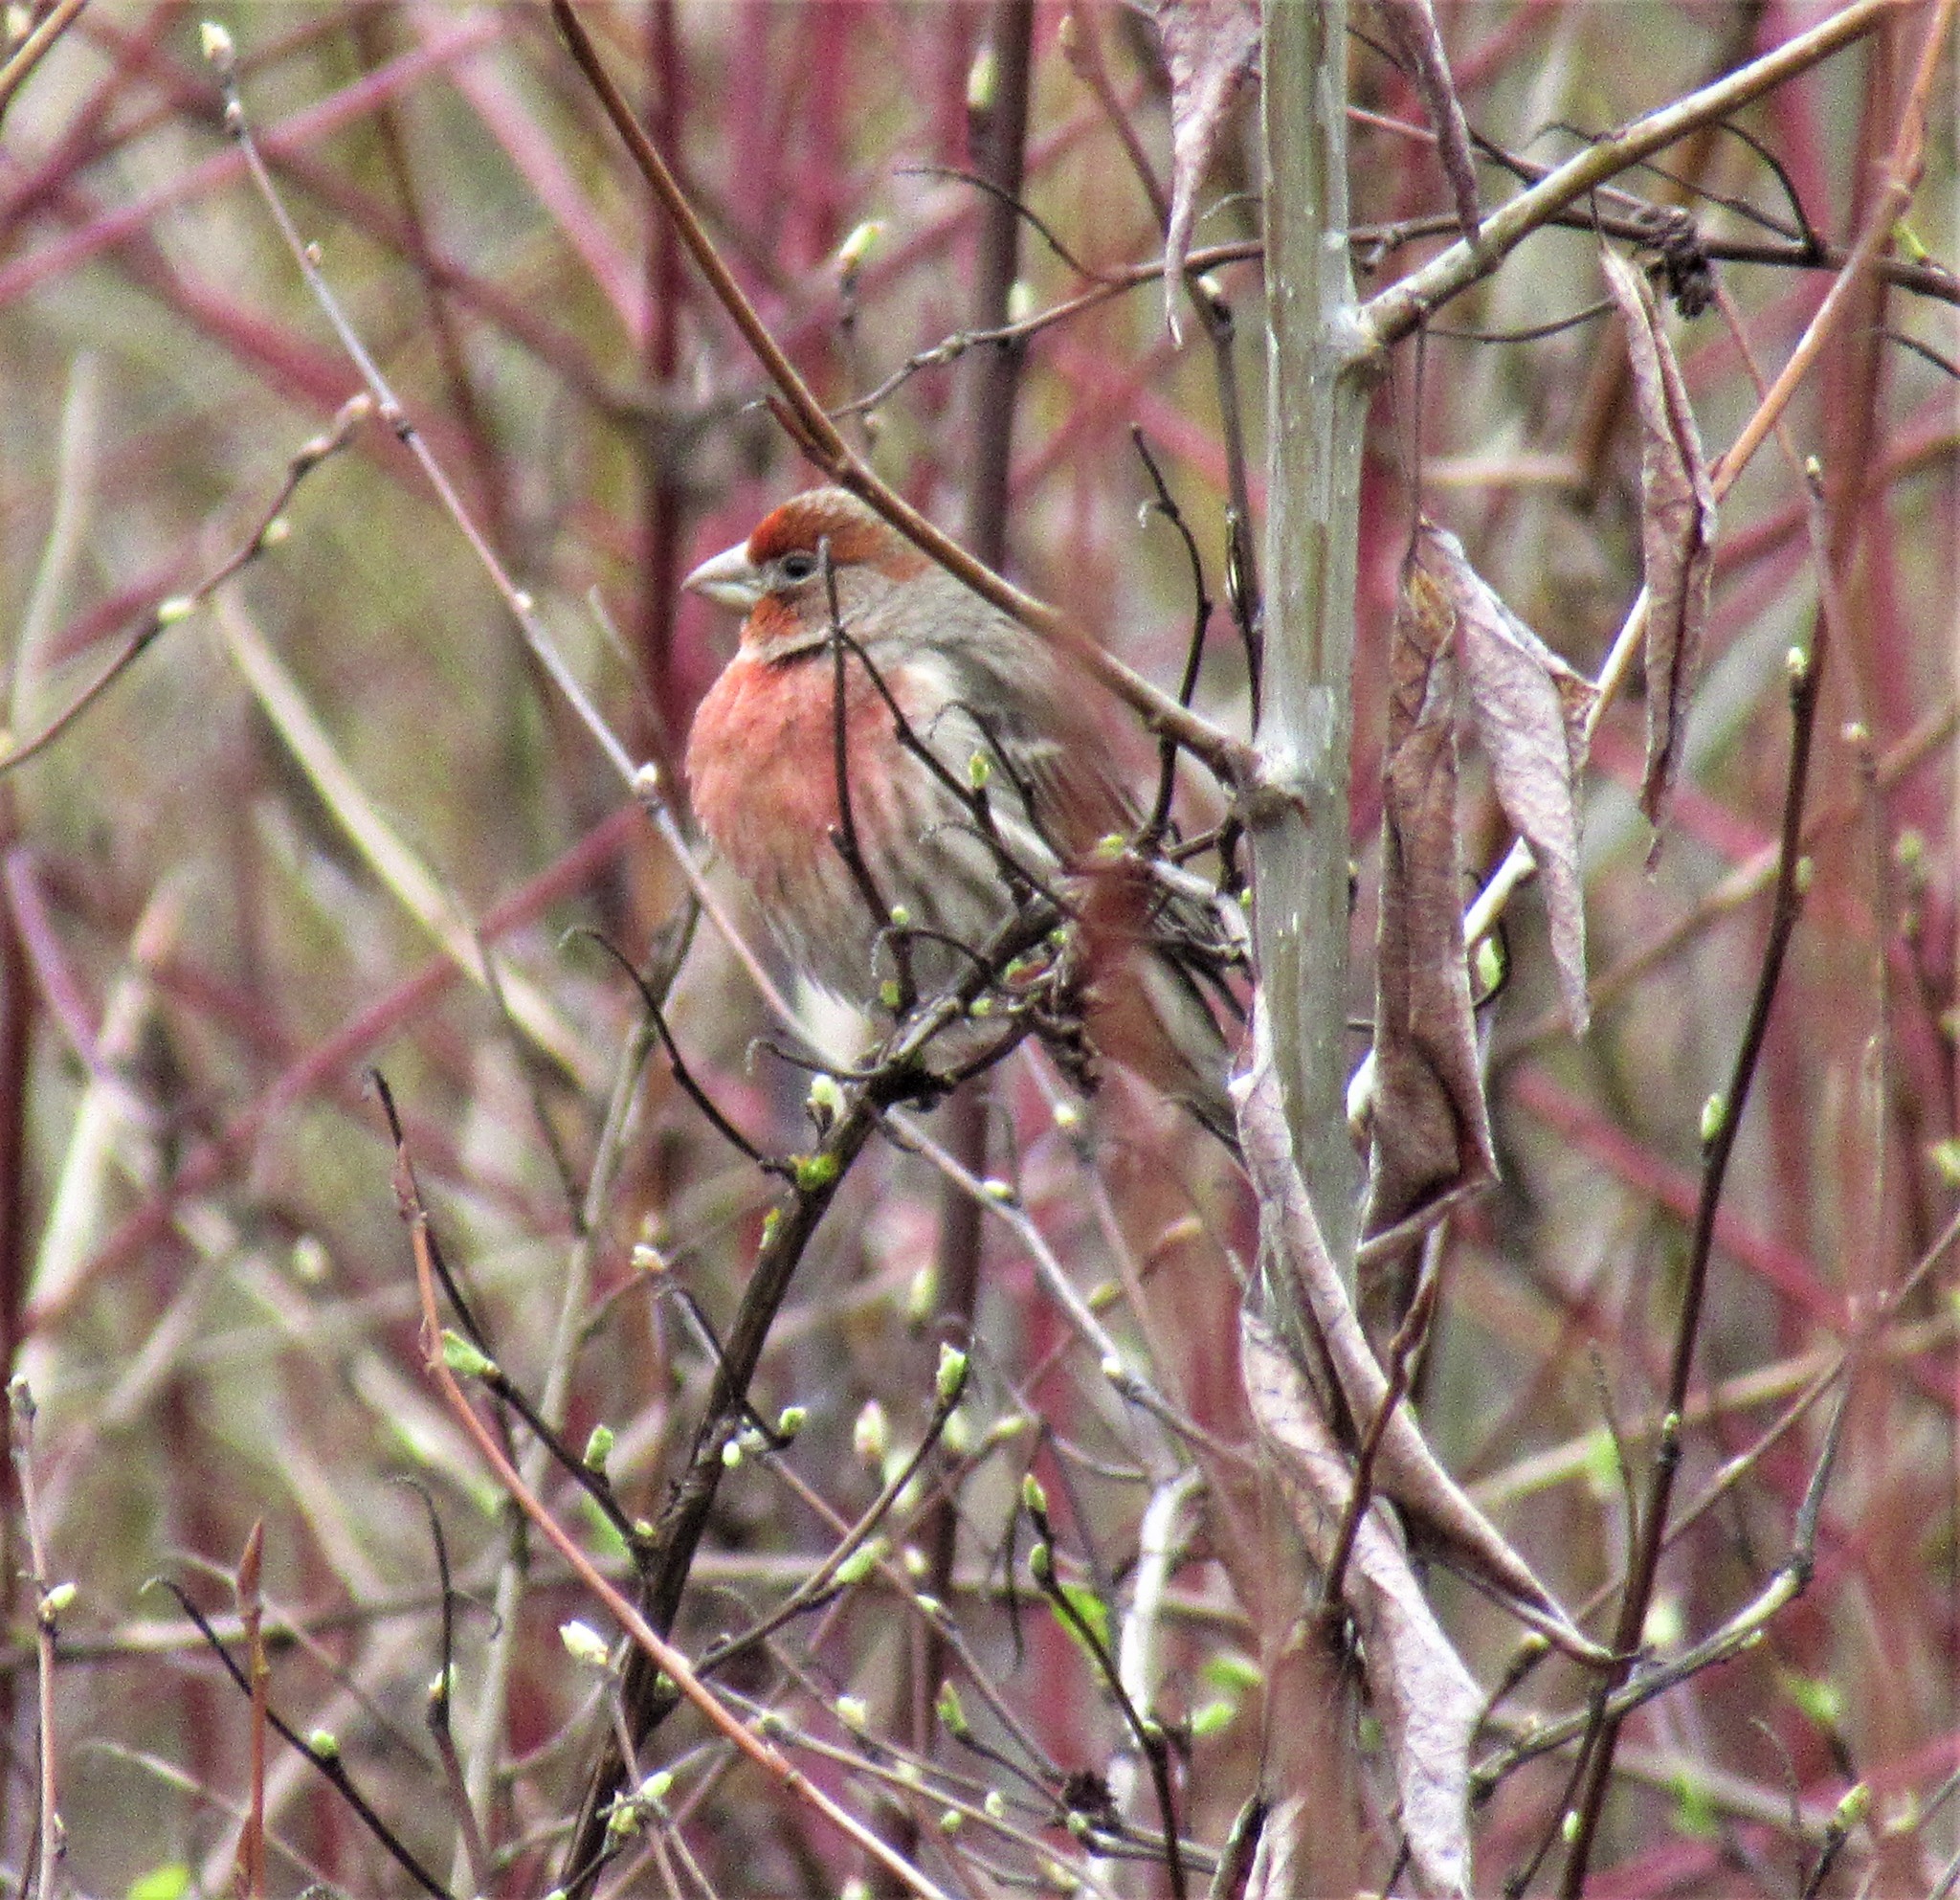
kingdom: Animalia
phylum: Chordata
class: Aves
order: Passeriformes
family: Fringillidae
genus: Haemorhous
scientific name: Haemorhous mexicanus
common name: House finch
